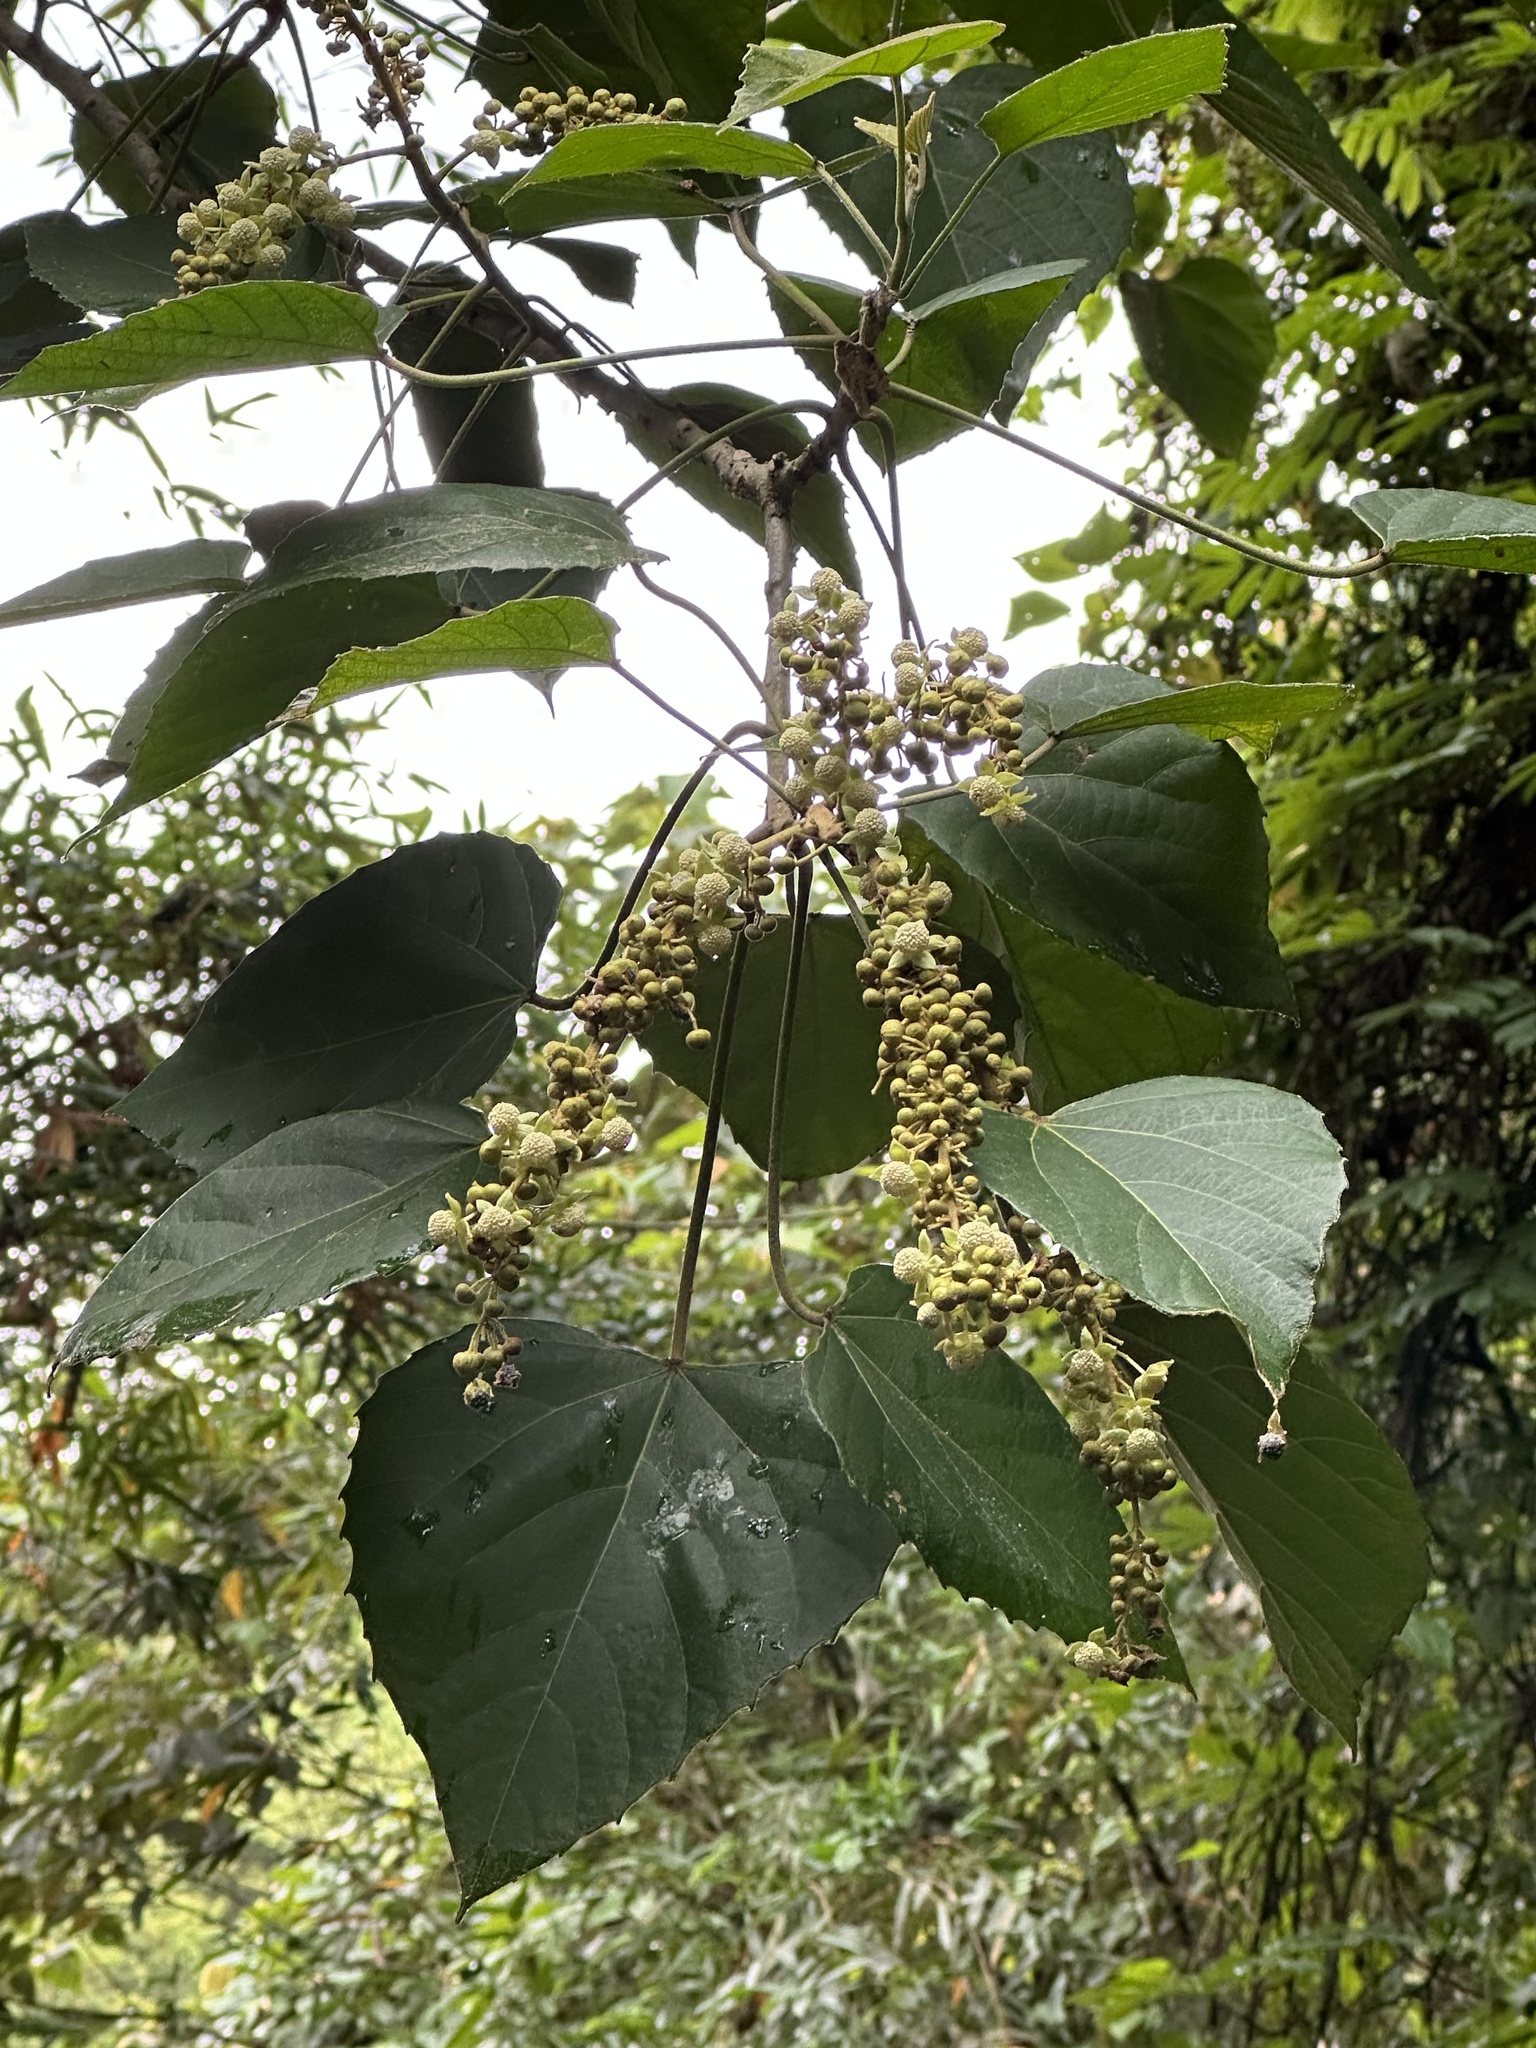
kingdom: Plantae
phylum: Tracheophyta
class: Magnoliopsida
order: Malpighiales
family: Euphorbiaceae
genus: Melanolepis
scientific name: Melanolepis multiglandulosa
